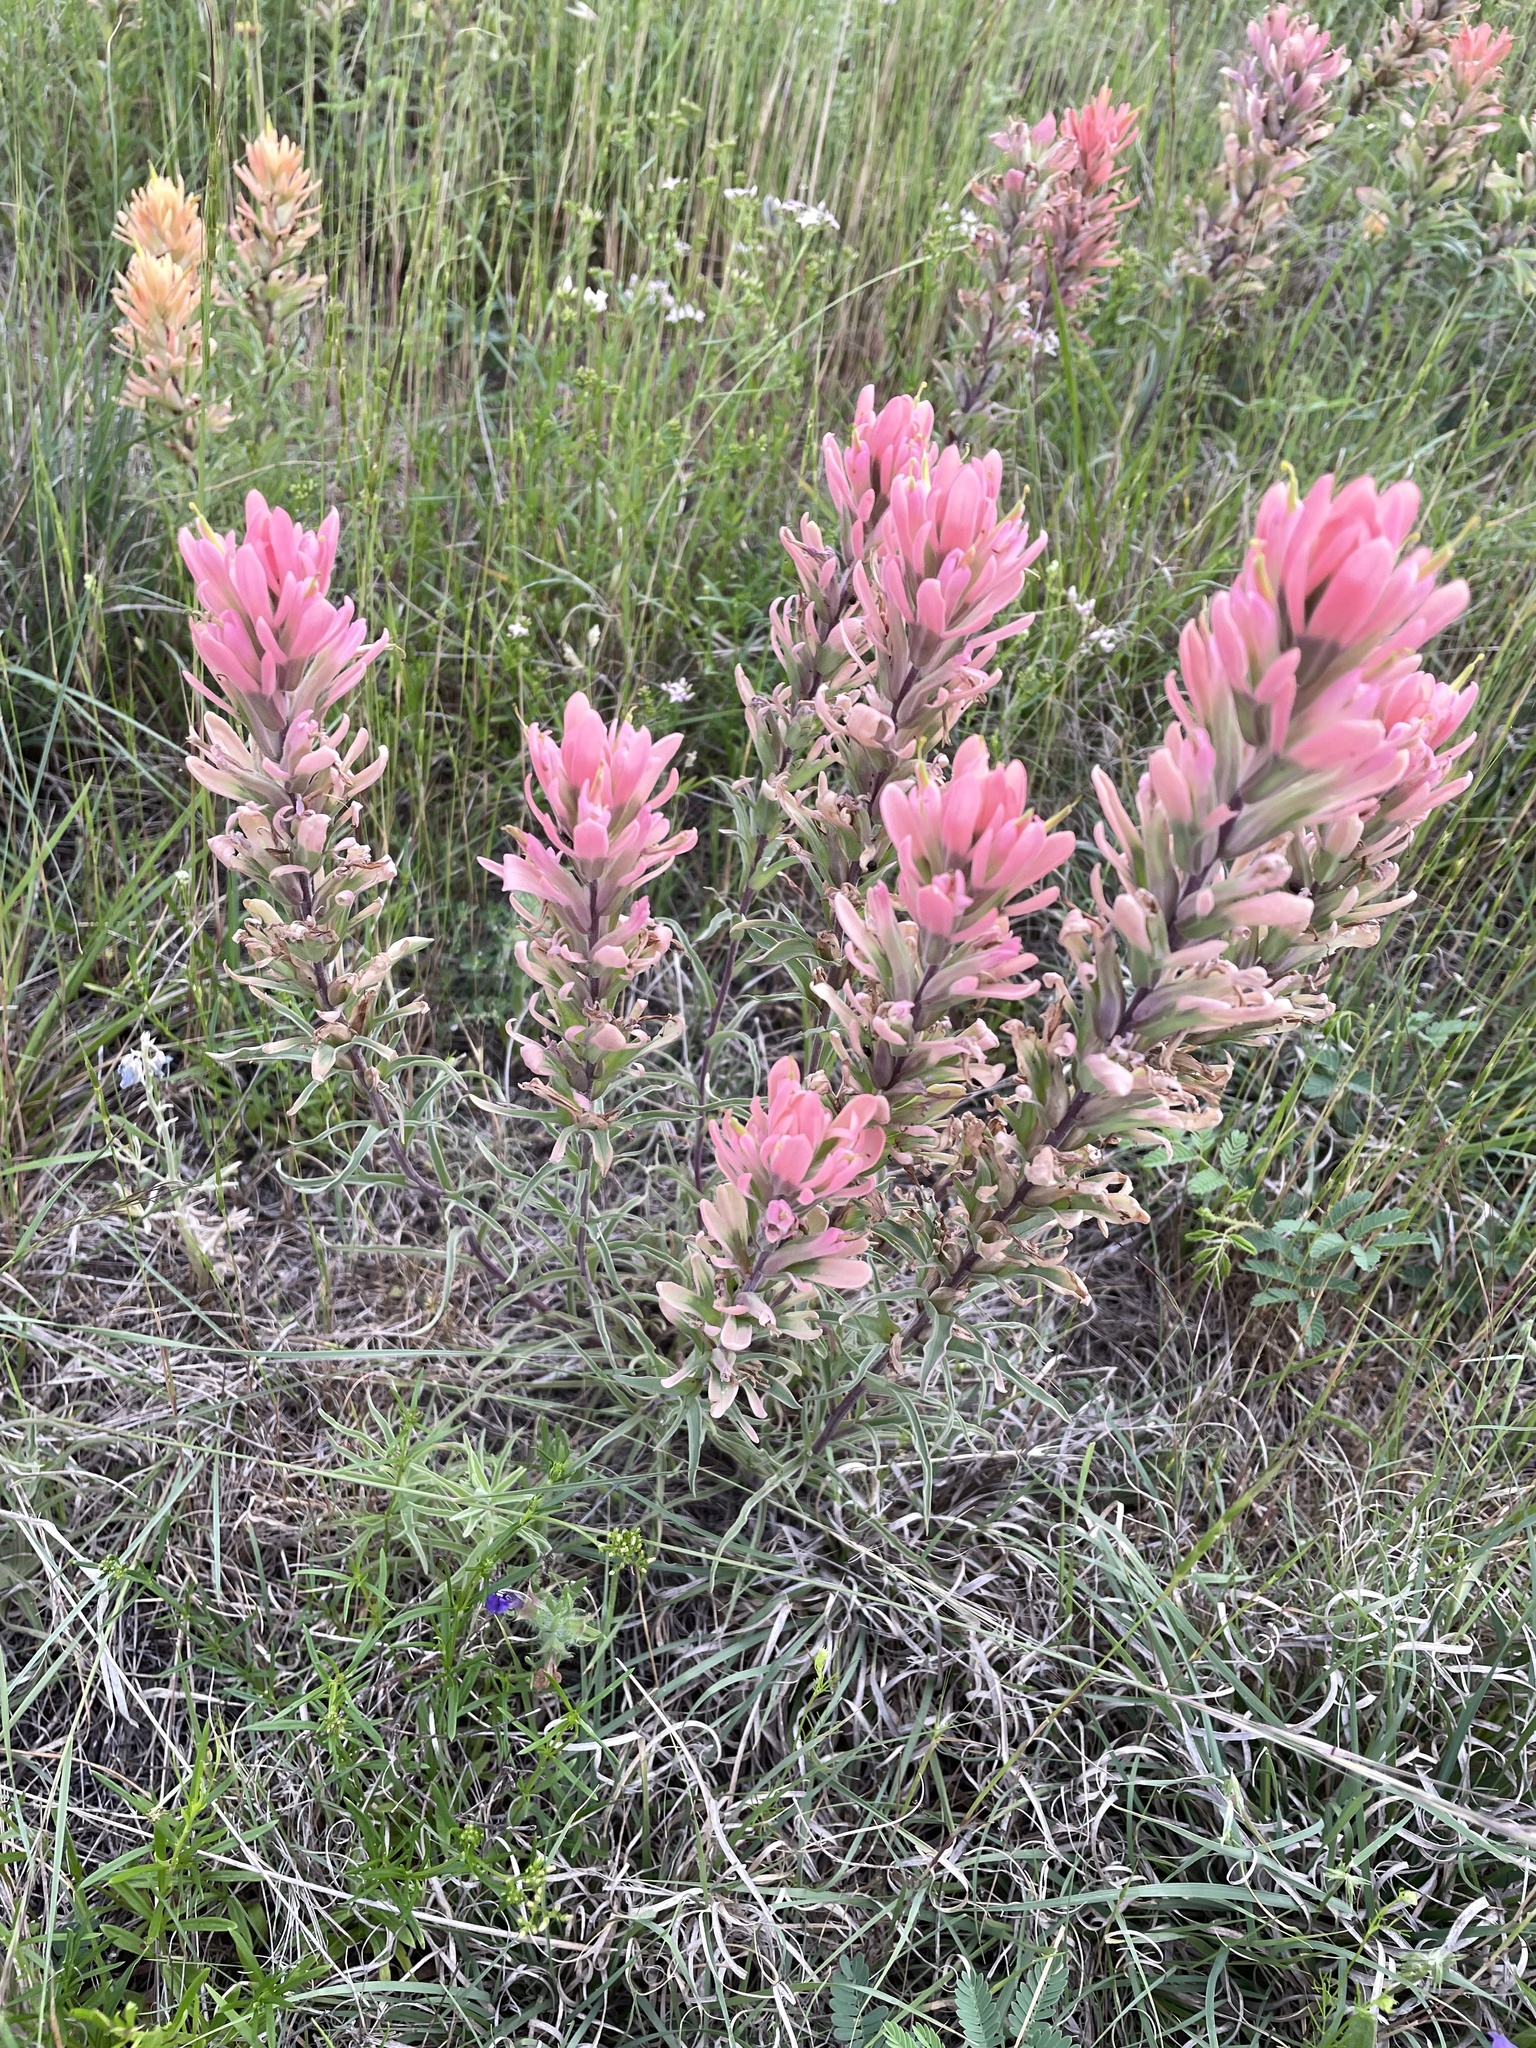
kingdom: Plantae
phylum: Tracheophyta
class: Magnoliopsida
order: Lamiales
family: Orobanchaceae
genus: Castilleja
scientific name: Castilleja purpurea
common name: Plains paintbrush
